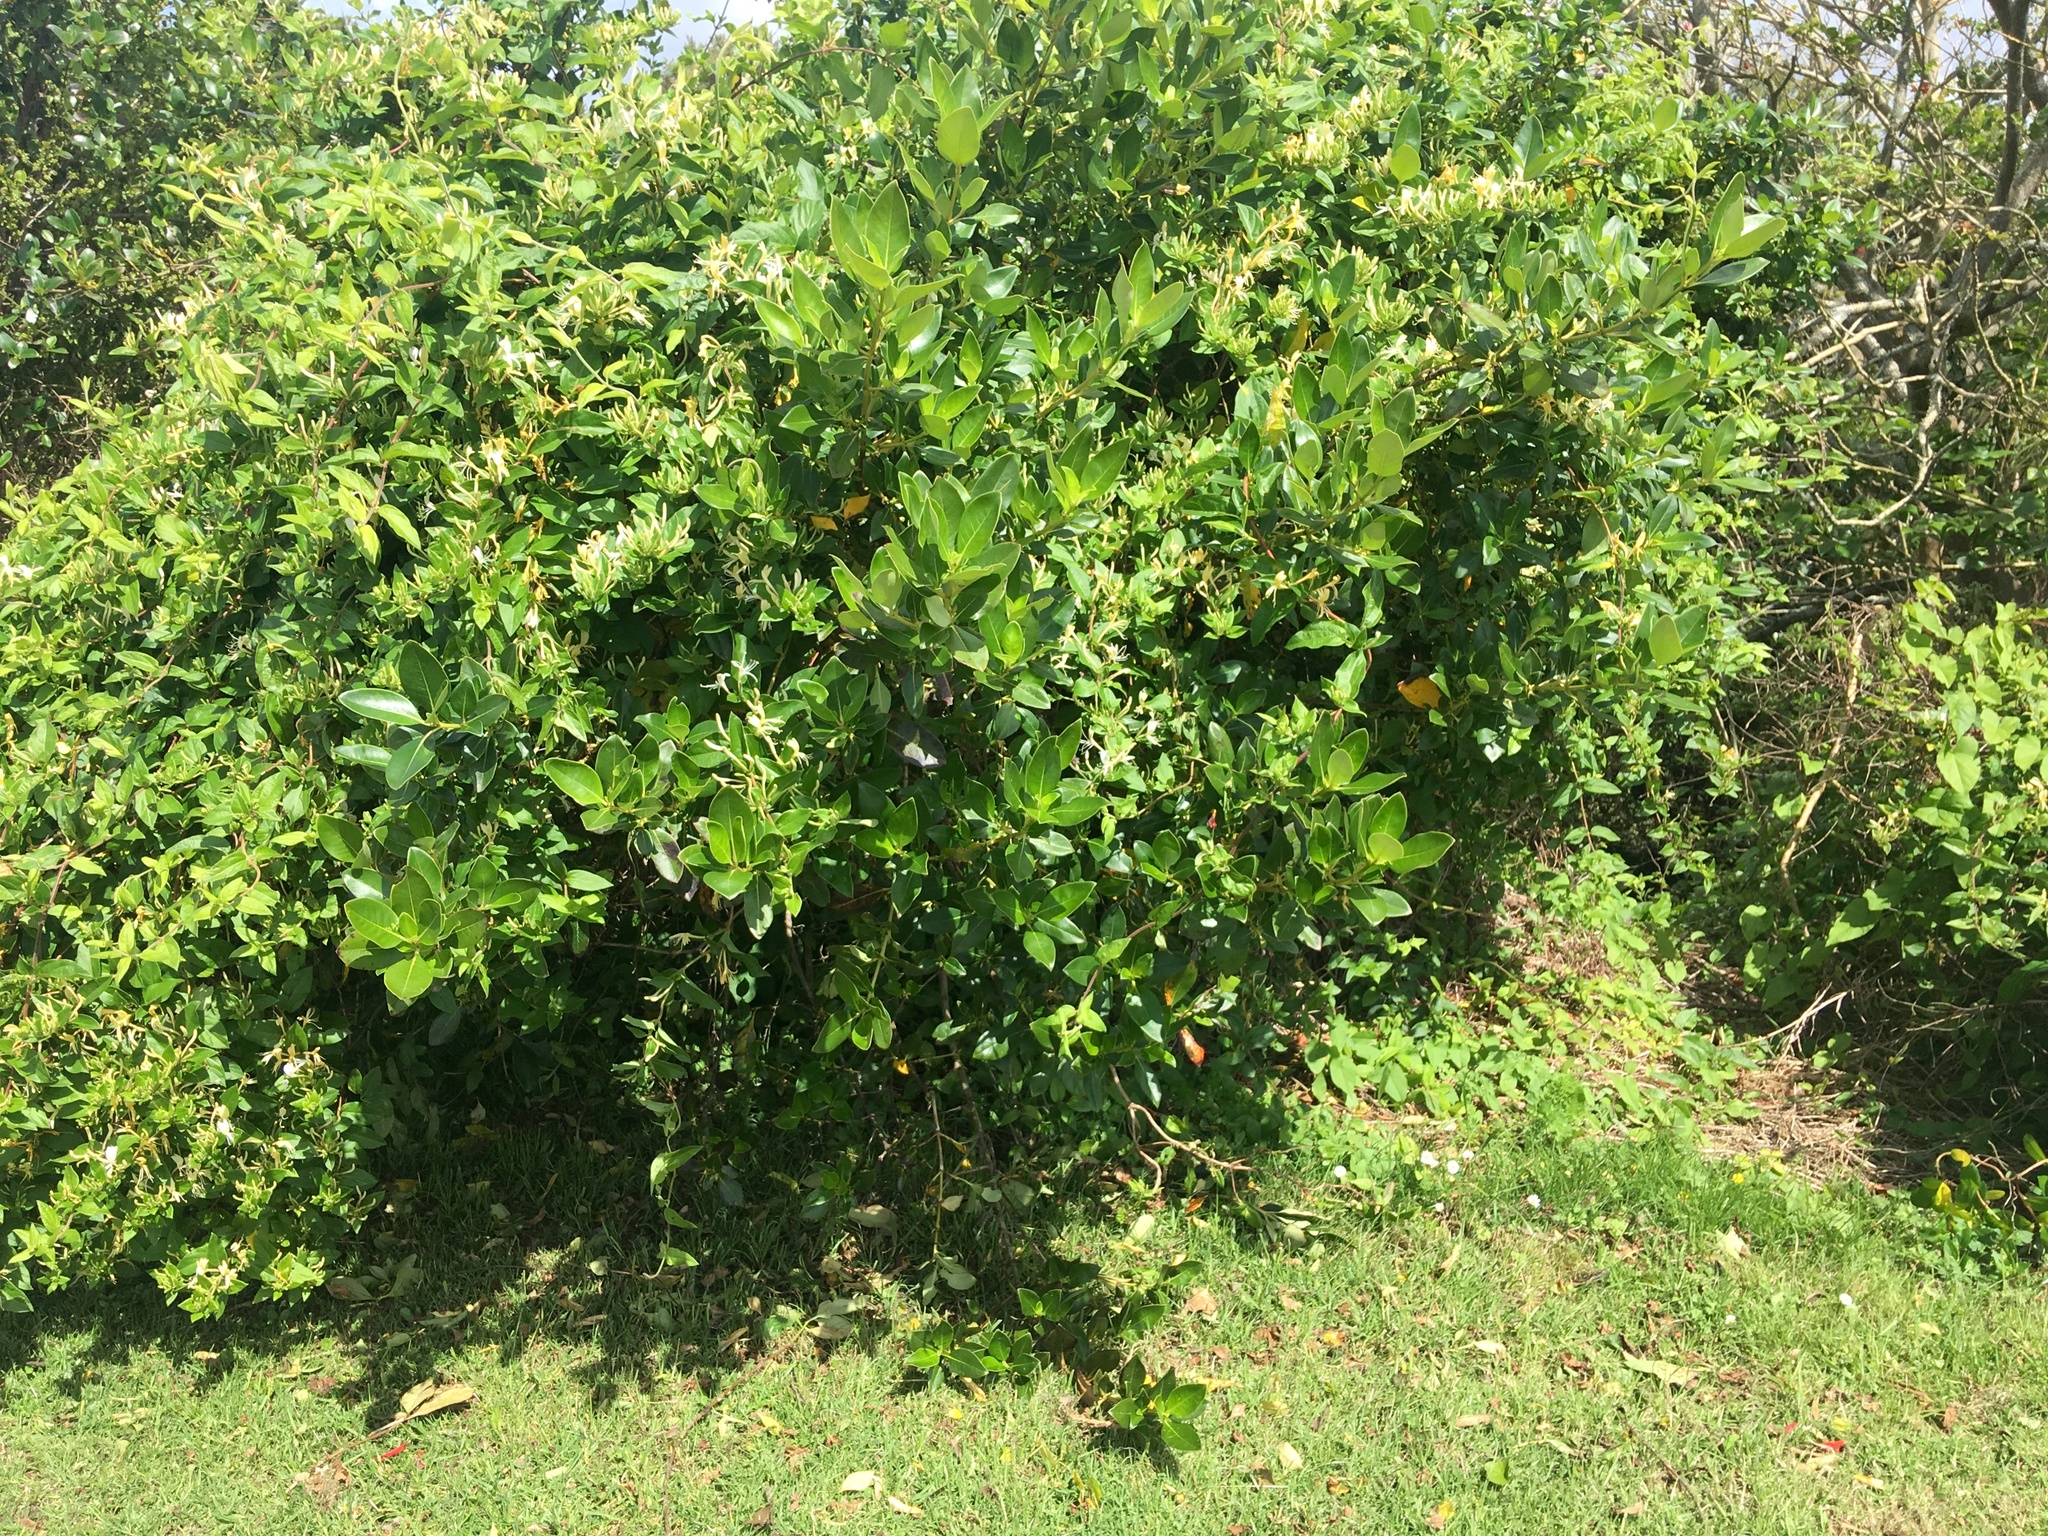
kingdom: Plantae
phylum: Tracheophyta
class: Magnoliopsida
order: Dipsacales
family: Caprifoliaceae
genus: Lonicera
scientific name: Lonicera japonica
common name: Japanese honeysuckle
